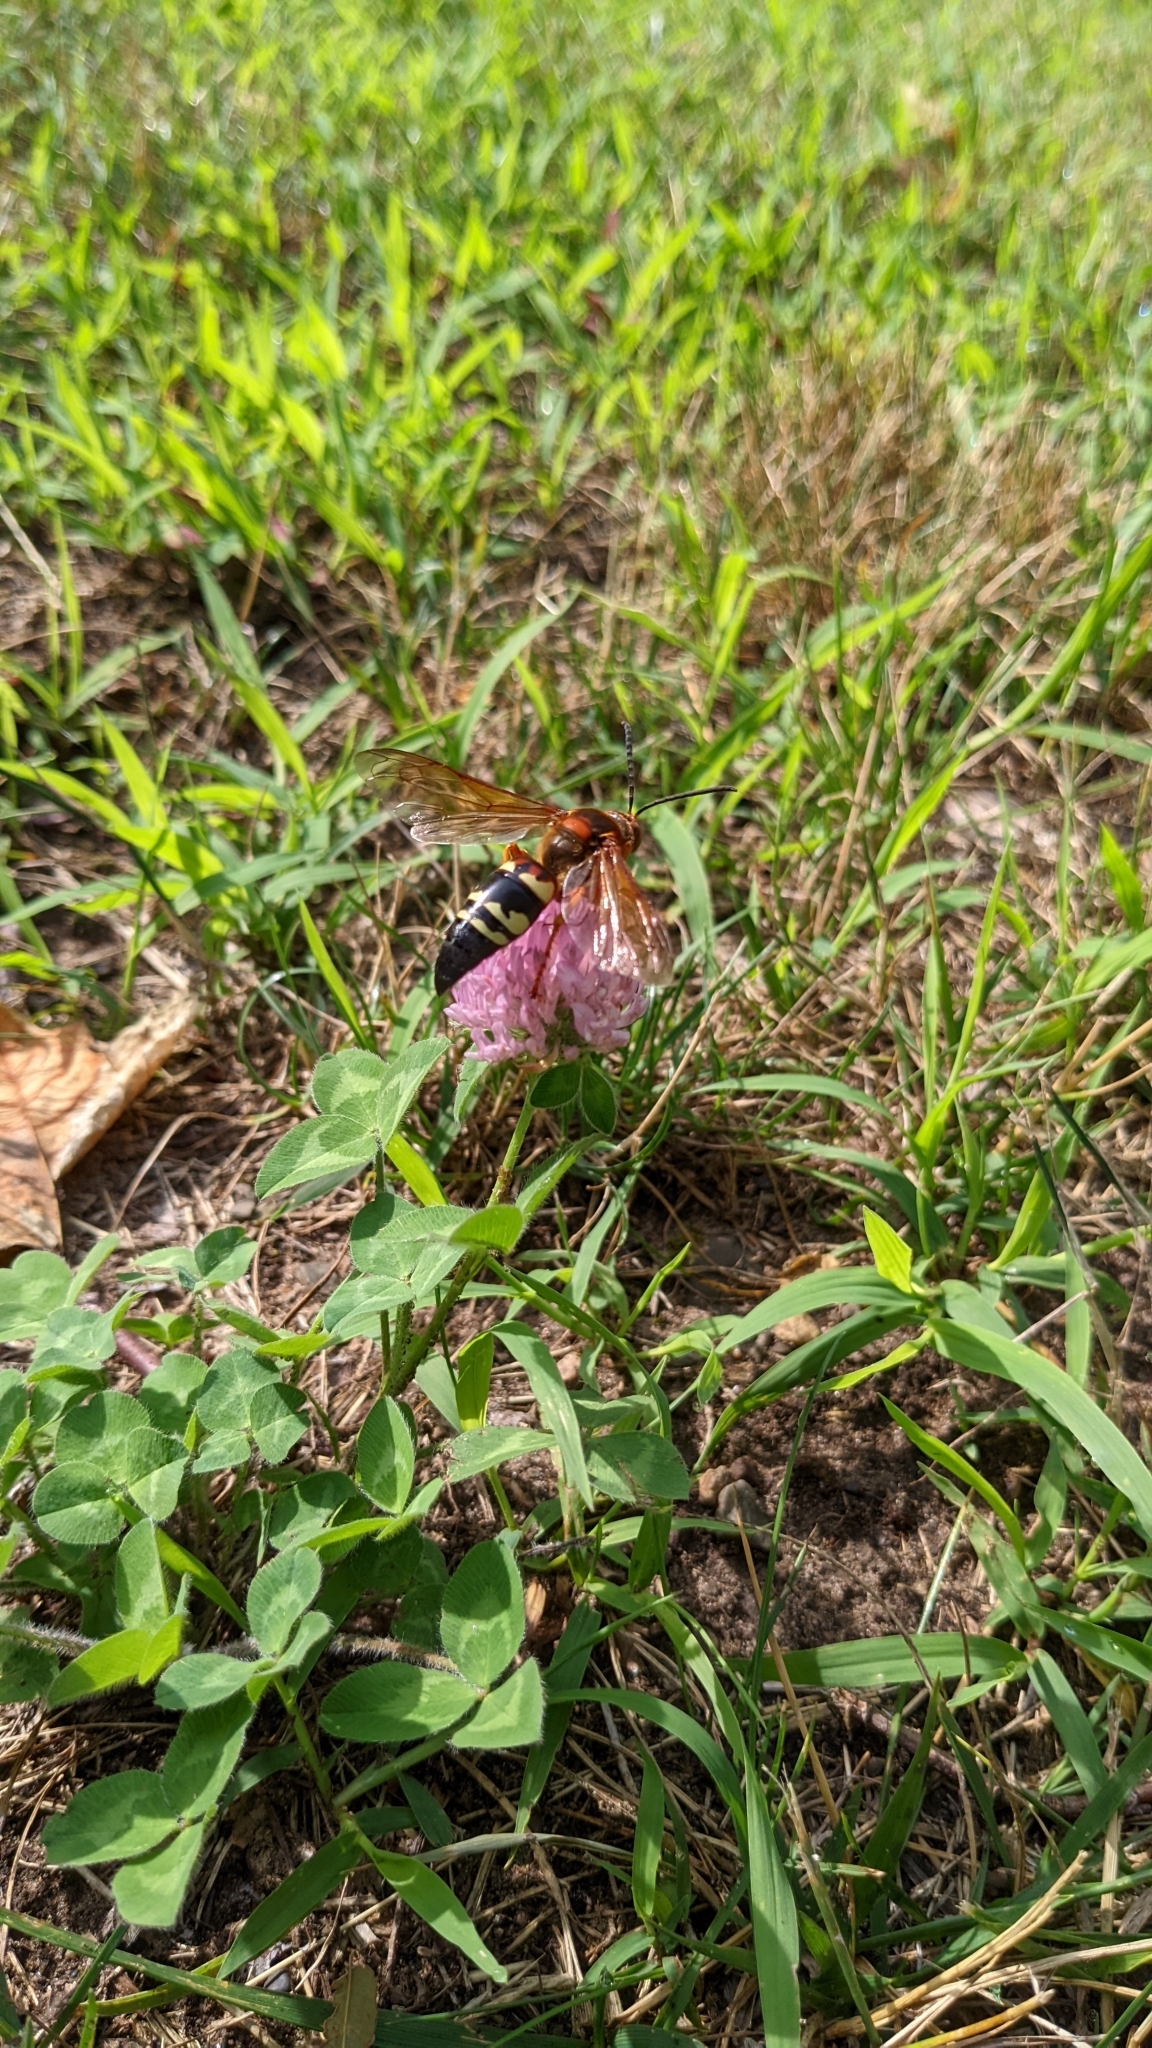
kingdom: Animalia
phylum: Arthropoda
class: Insecta
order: Hymenoptera
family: Crabronidae
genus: Sphecius
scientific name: Sphecius speciosus
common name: Cicada killer
